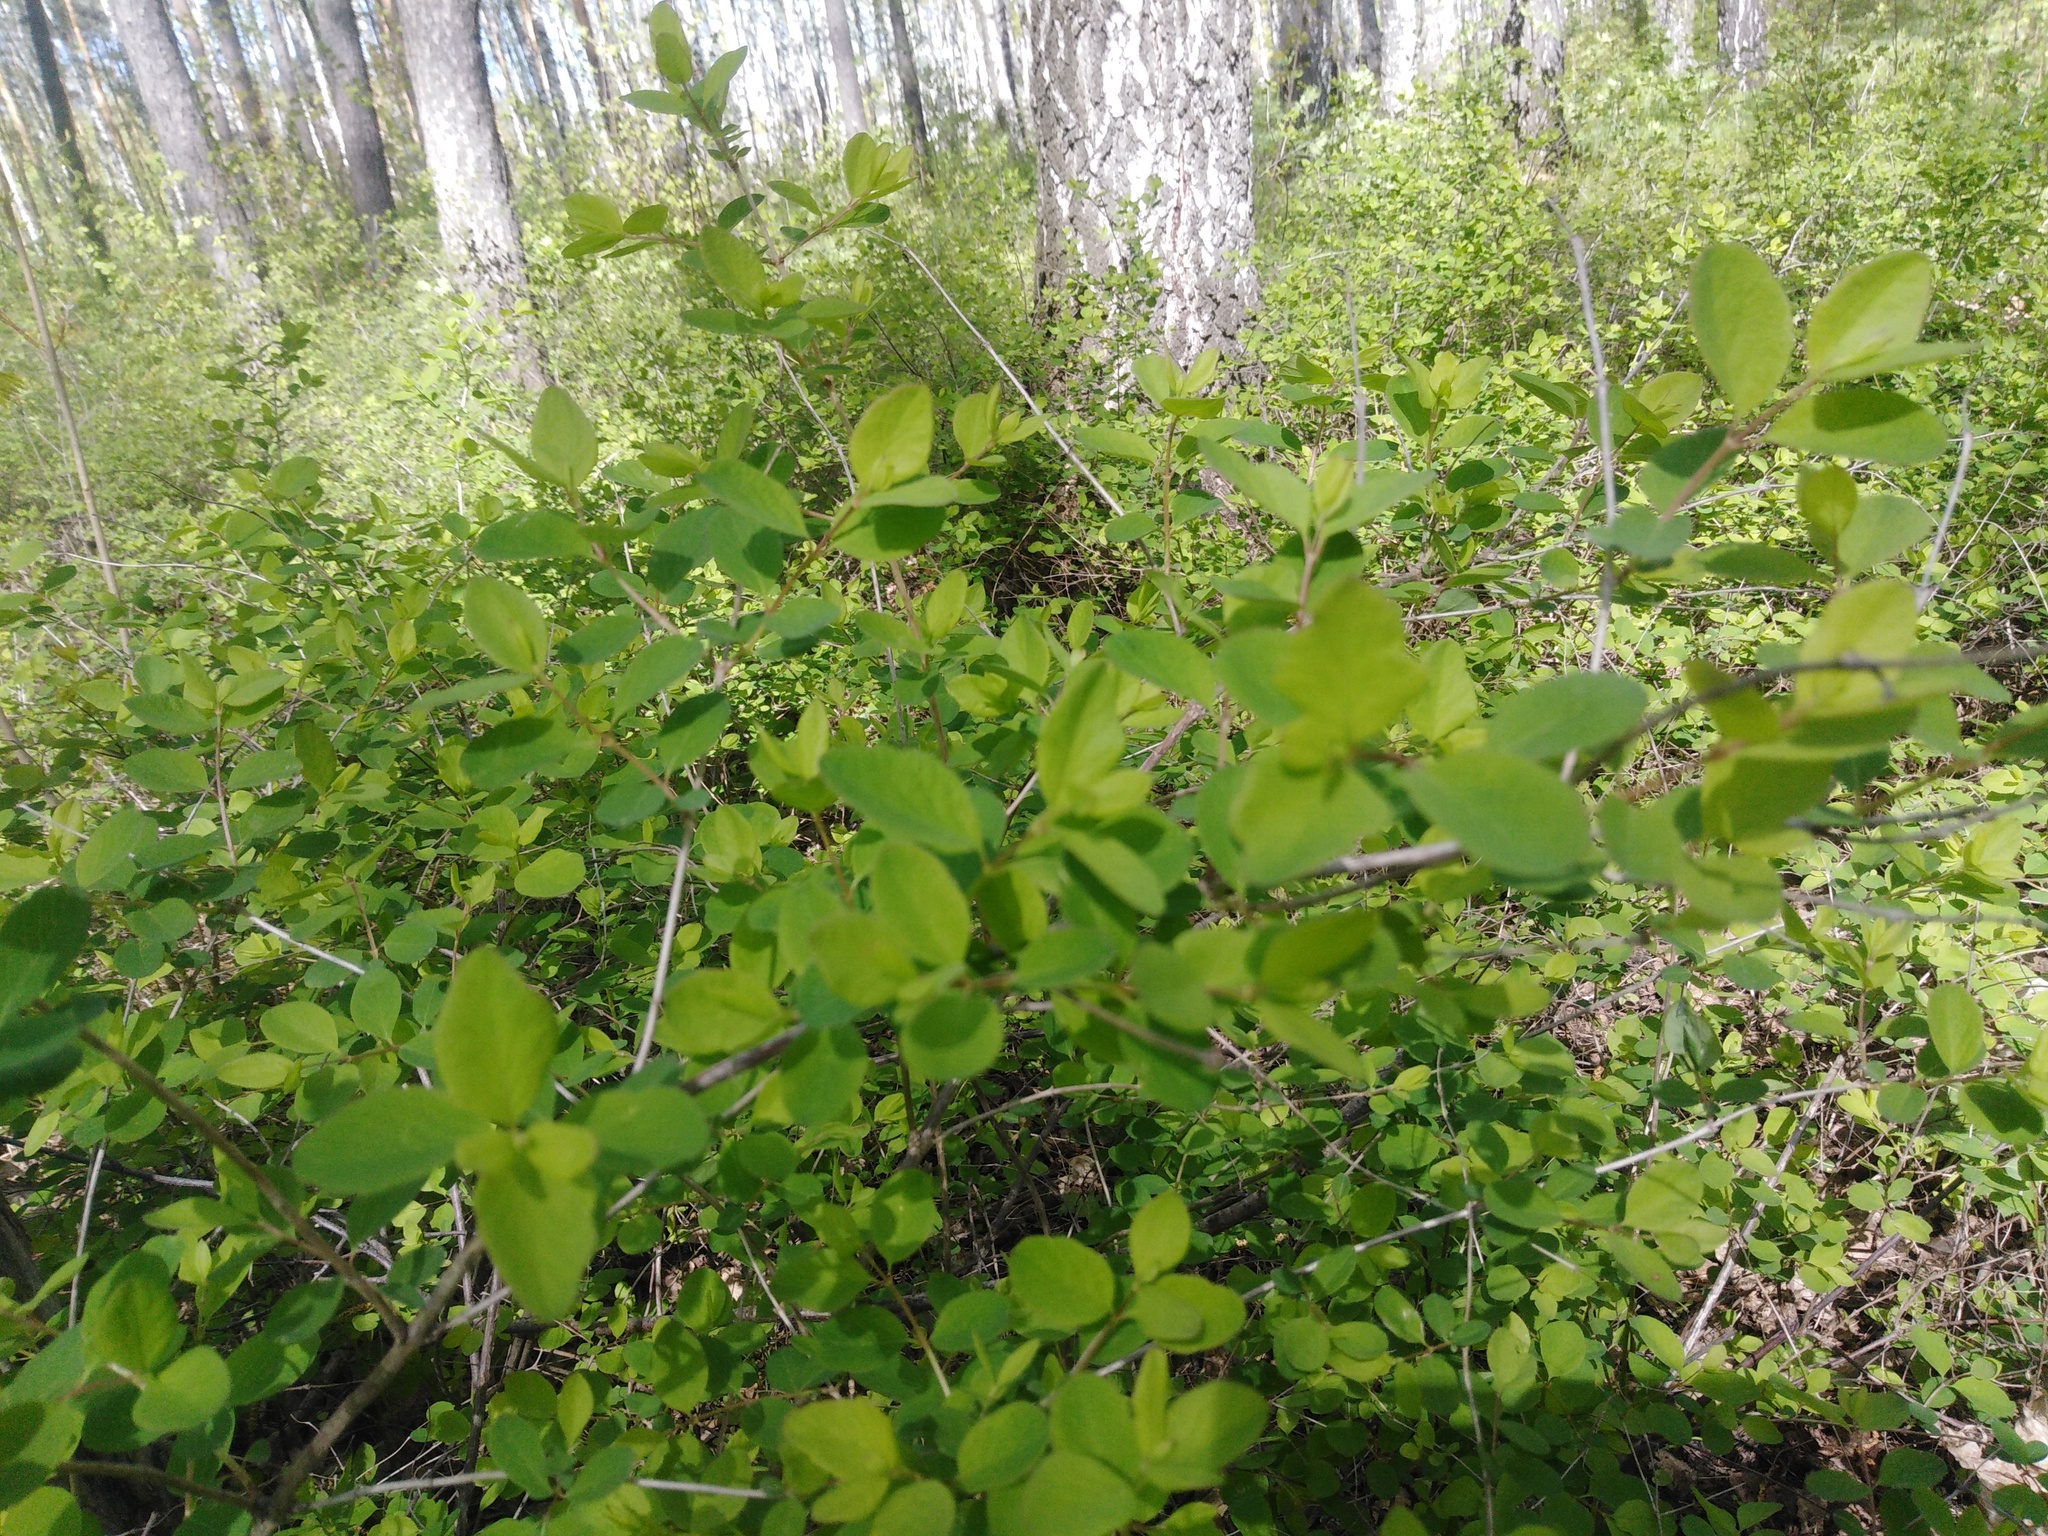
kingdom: Plantae
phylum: Tracheophyta
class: Magnoliopsida
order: Dipsacales
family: Caprifoliaceae
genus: Symphoricarpos
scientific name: Symphoricarpos albus
